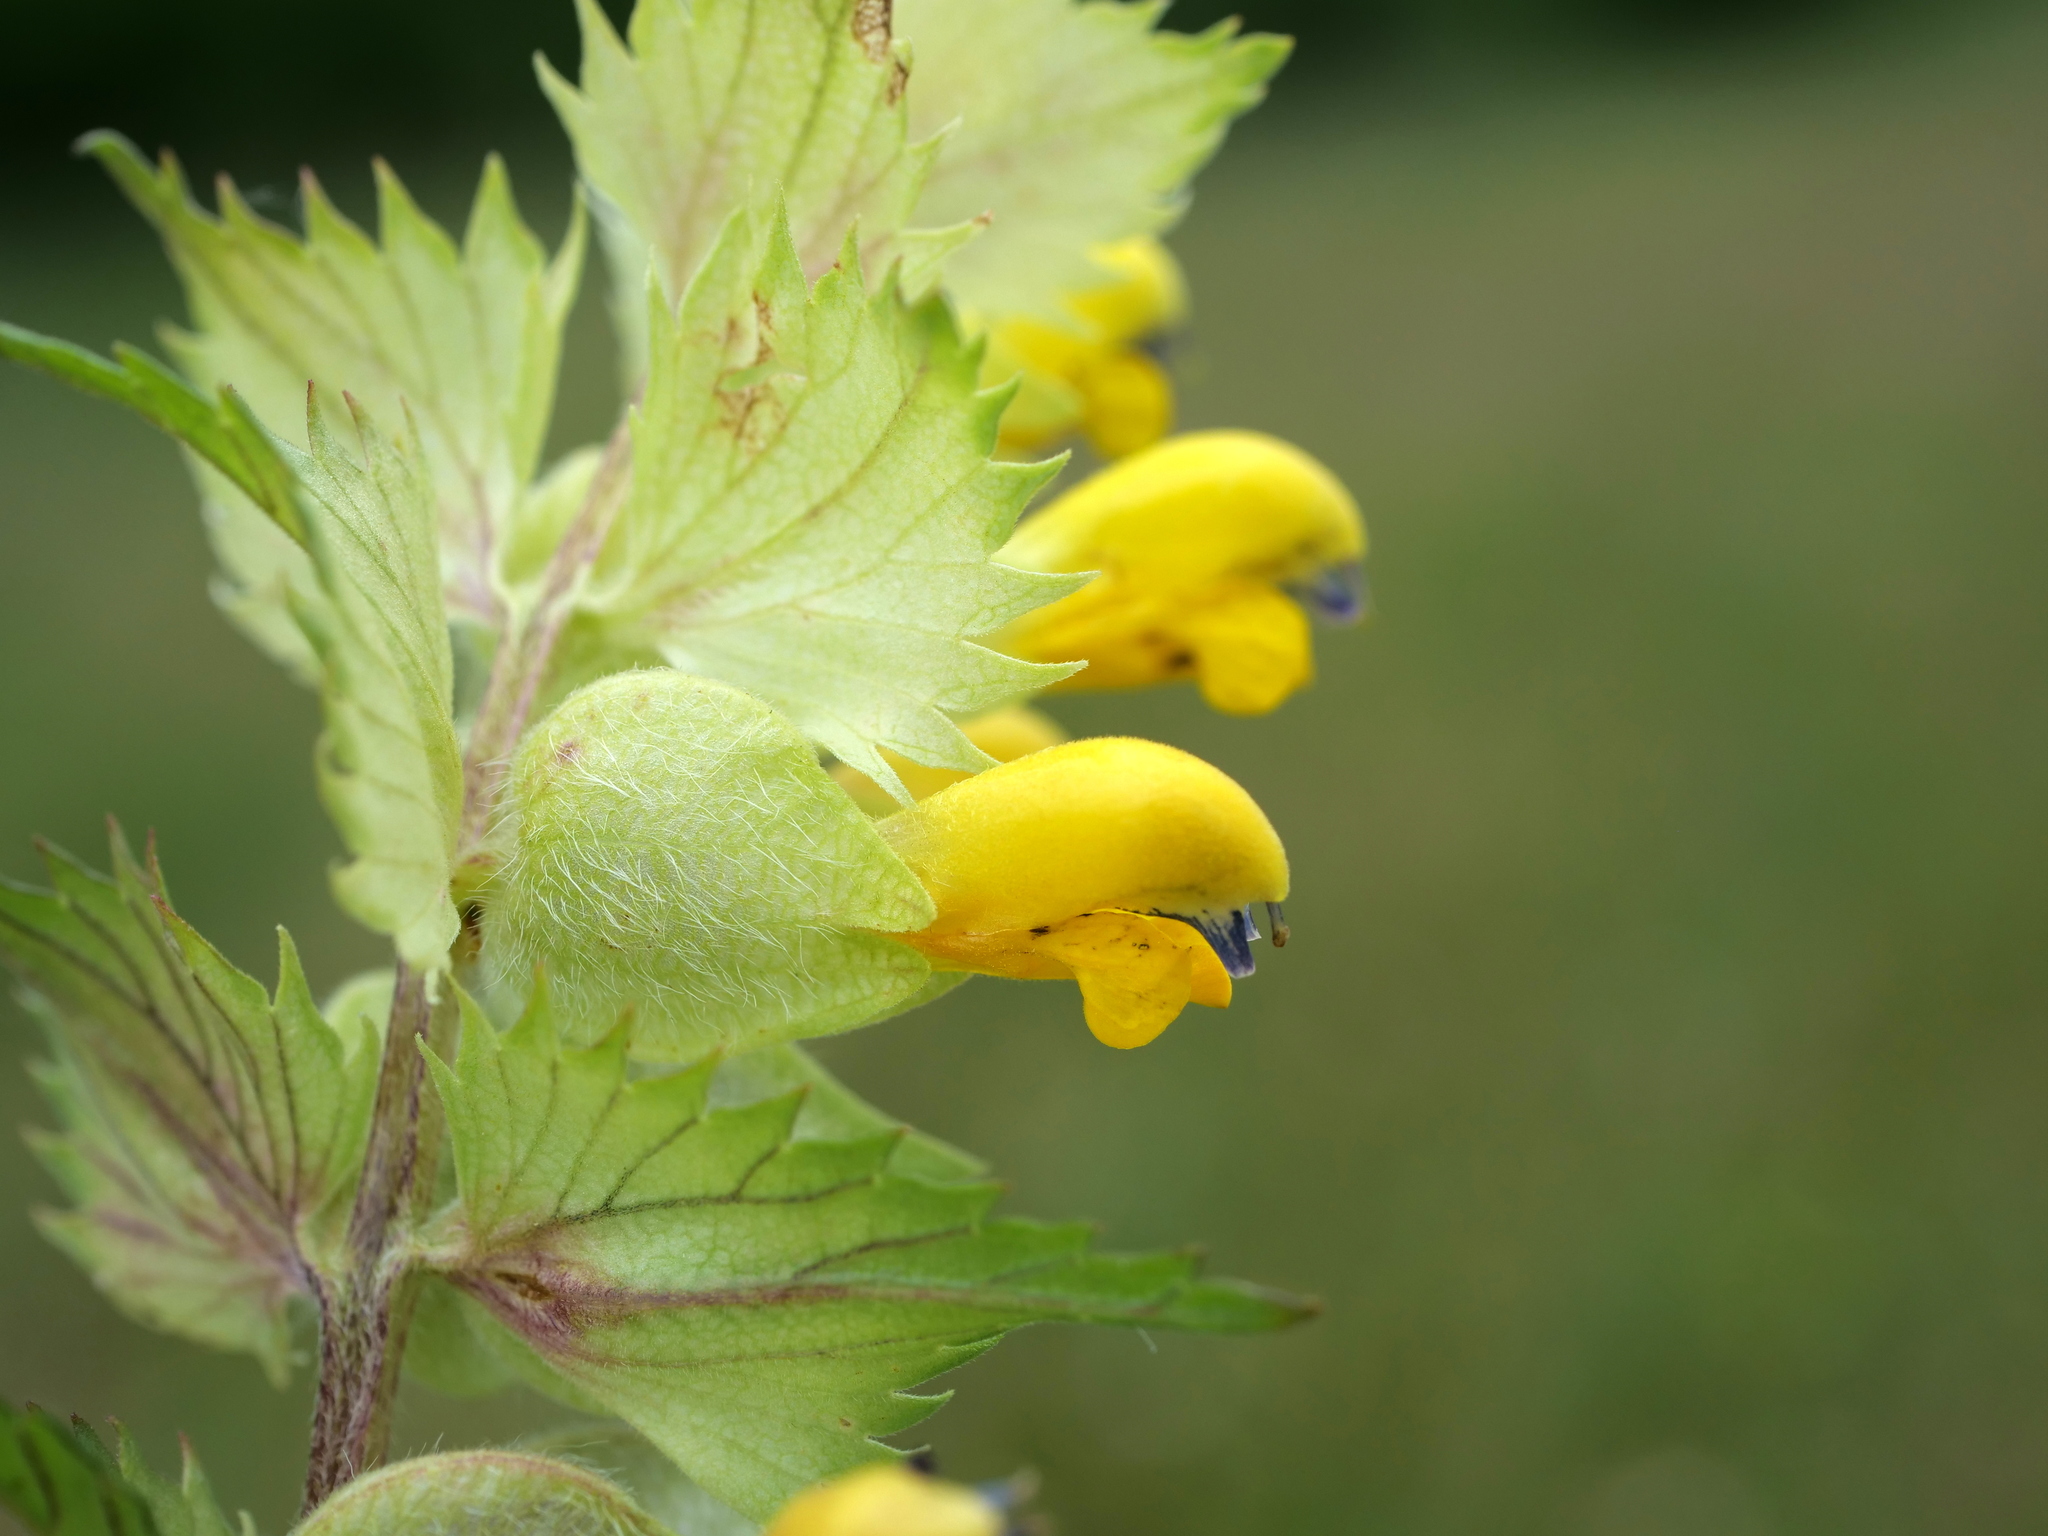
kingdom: Plantae
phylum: Tracheophyta
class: Magnoliopsida
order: Lamiales
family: Orobanchaceae
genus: Rhinanthus
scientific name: Rhinanthus alectorolophus
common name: Greater yellow-rattle
